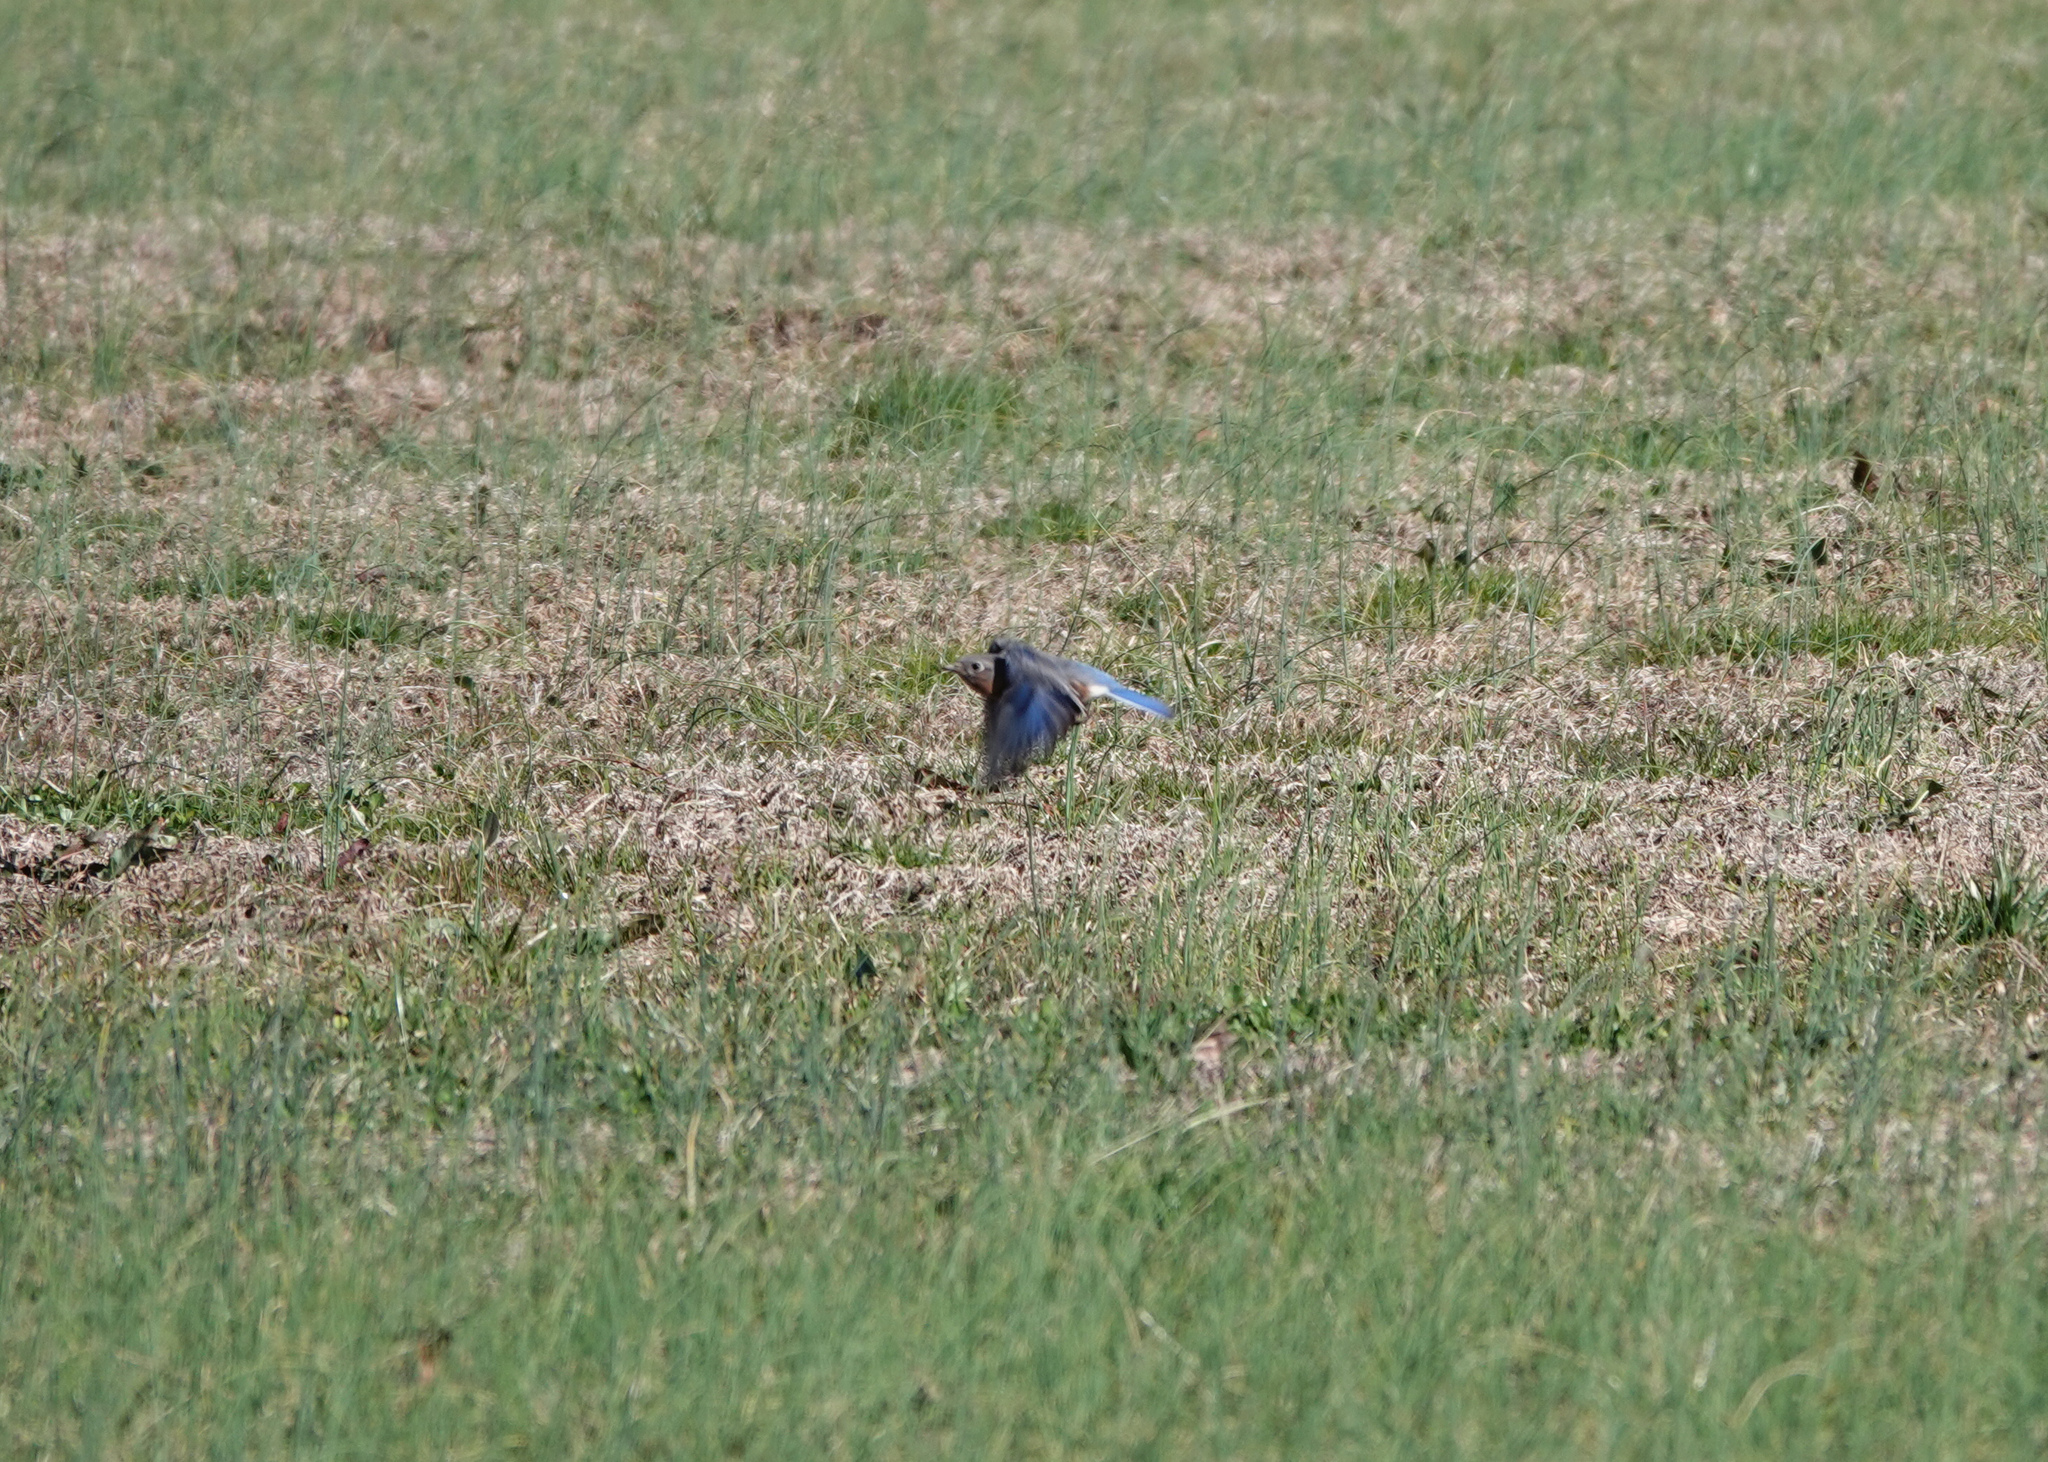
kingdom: Animalia
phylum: Chordata
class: Aves
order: Passeriformes
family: Turdidae
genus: Sialia
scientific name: Sialia sialis
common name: Eastern bluebird
